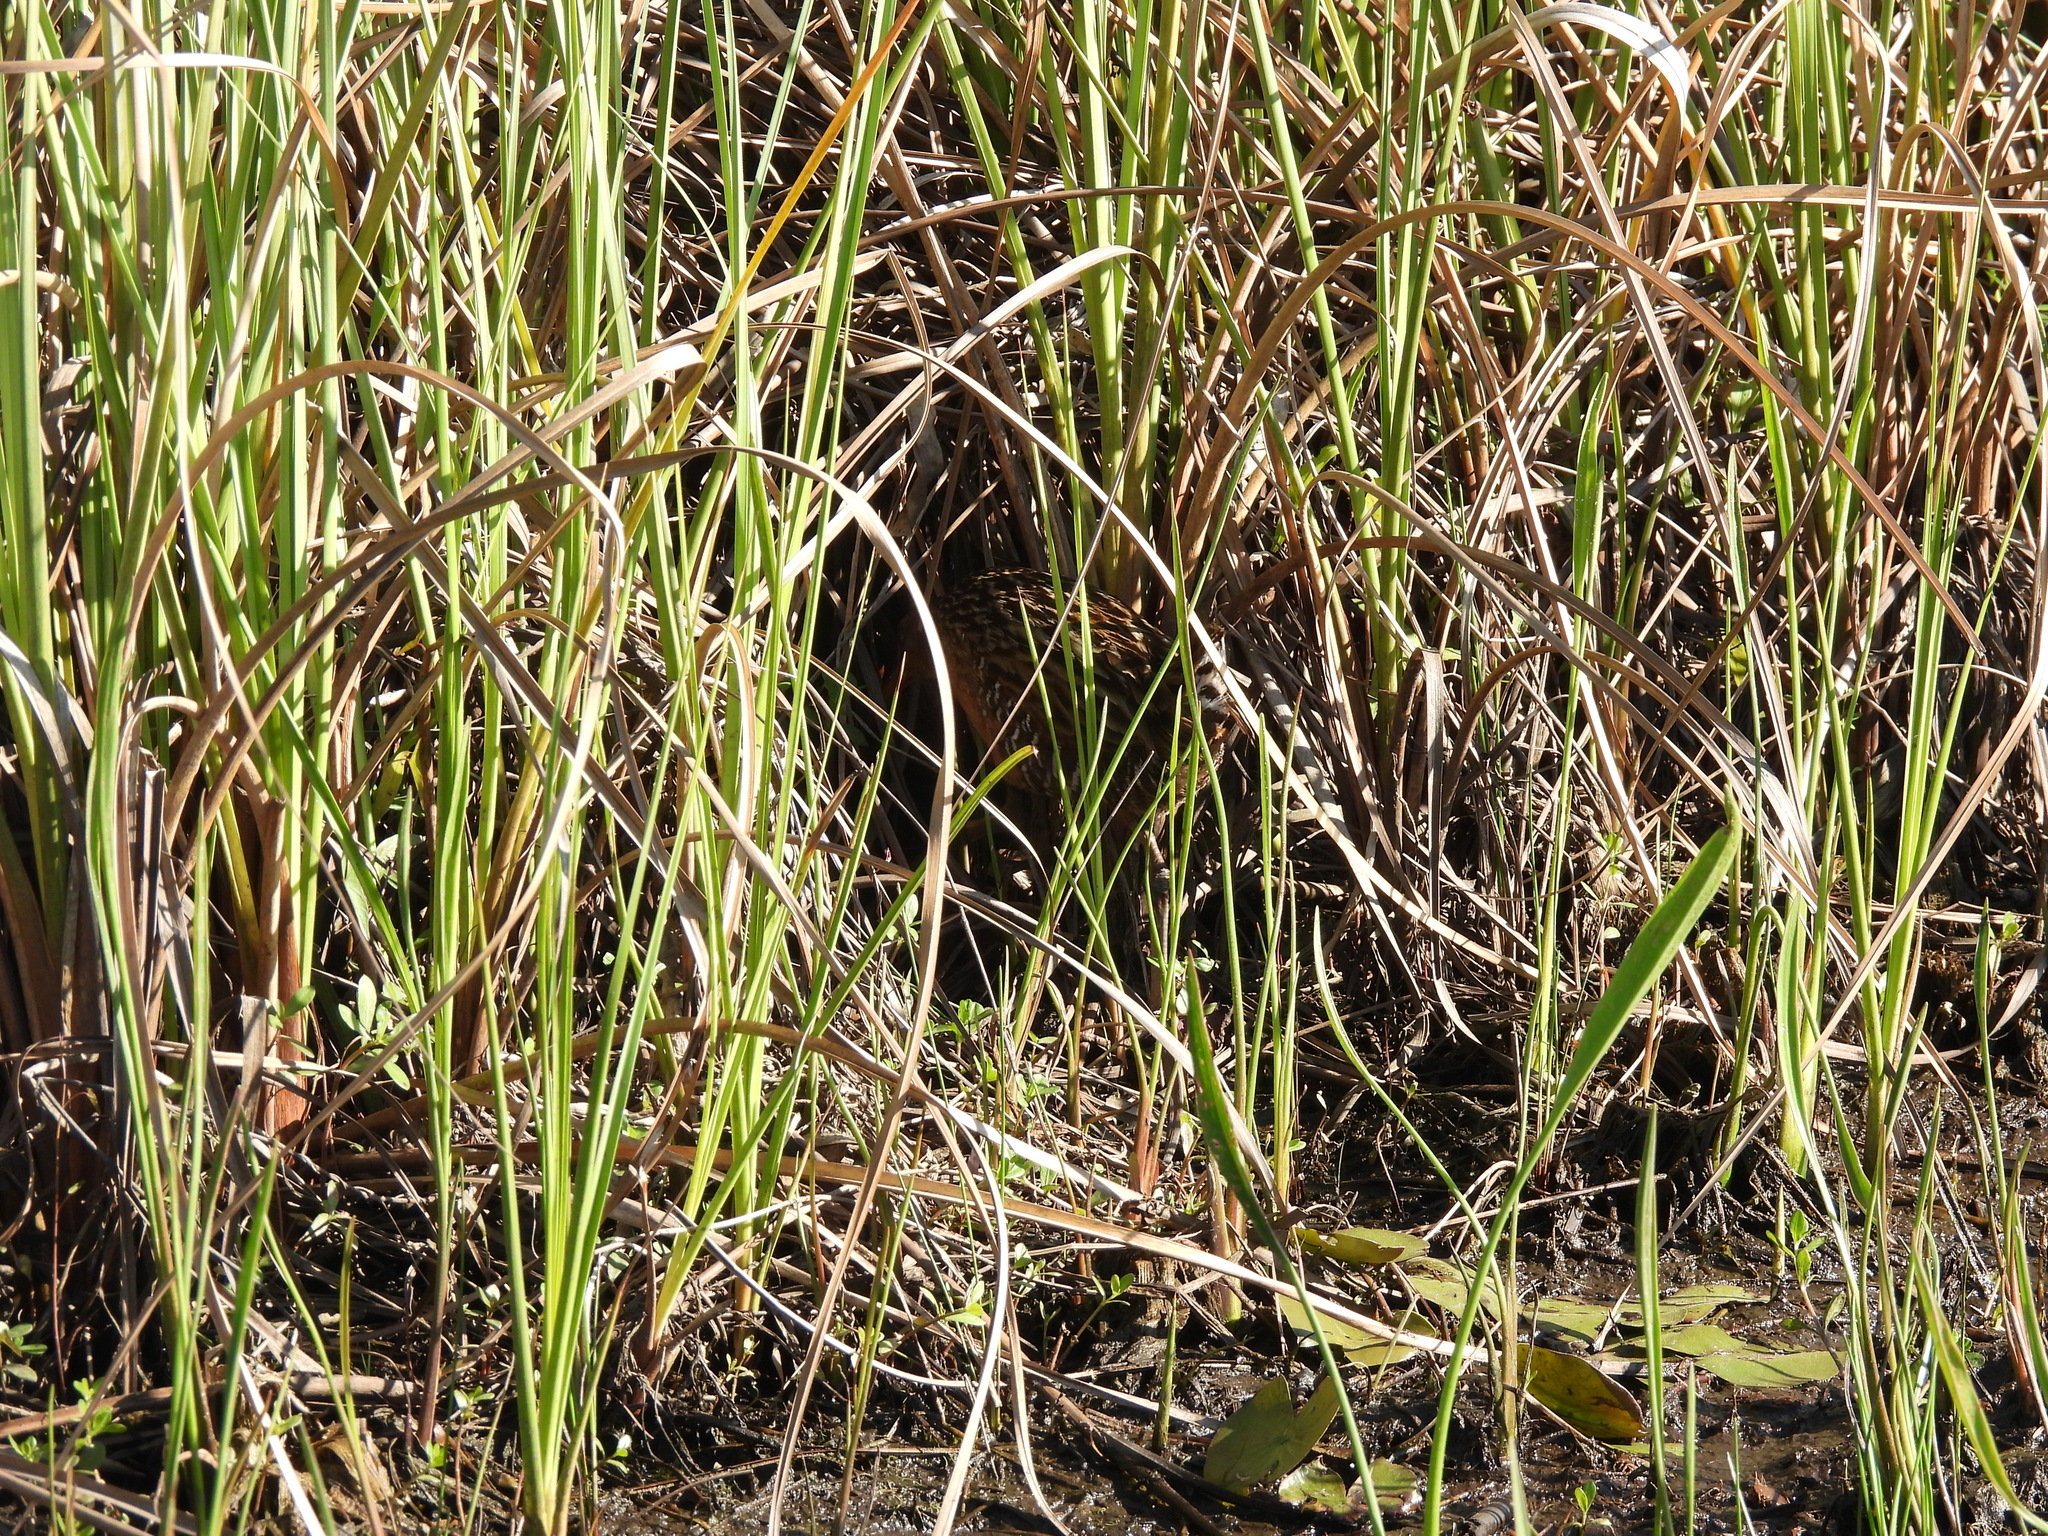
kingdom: Animalia
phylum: Chordata
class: Aves
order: Gruiformes
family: Rallidae
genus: Rallus
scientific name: Rallus elegans
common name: King rail
